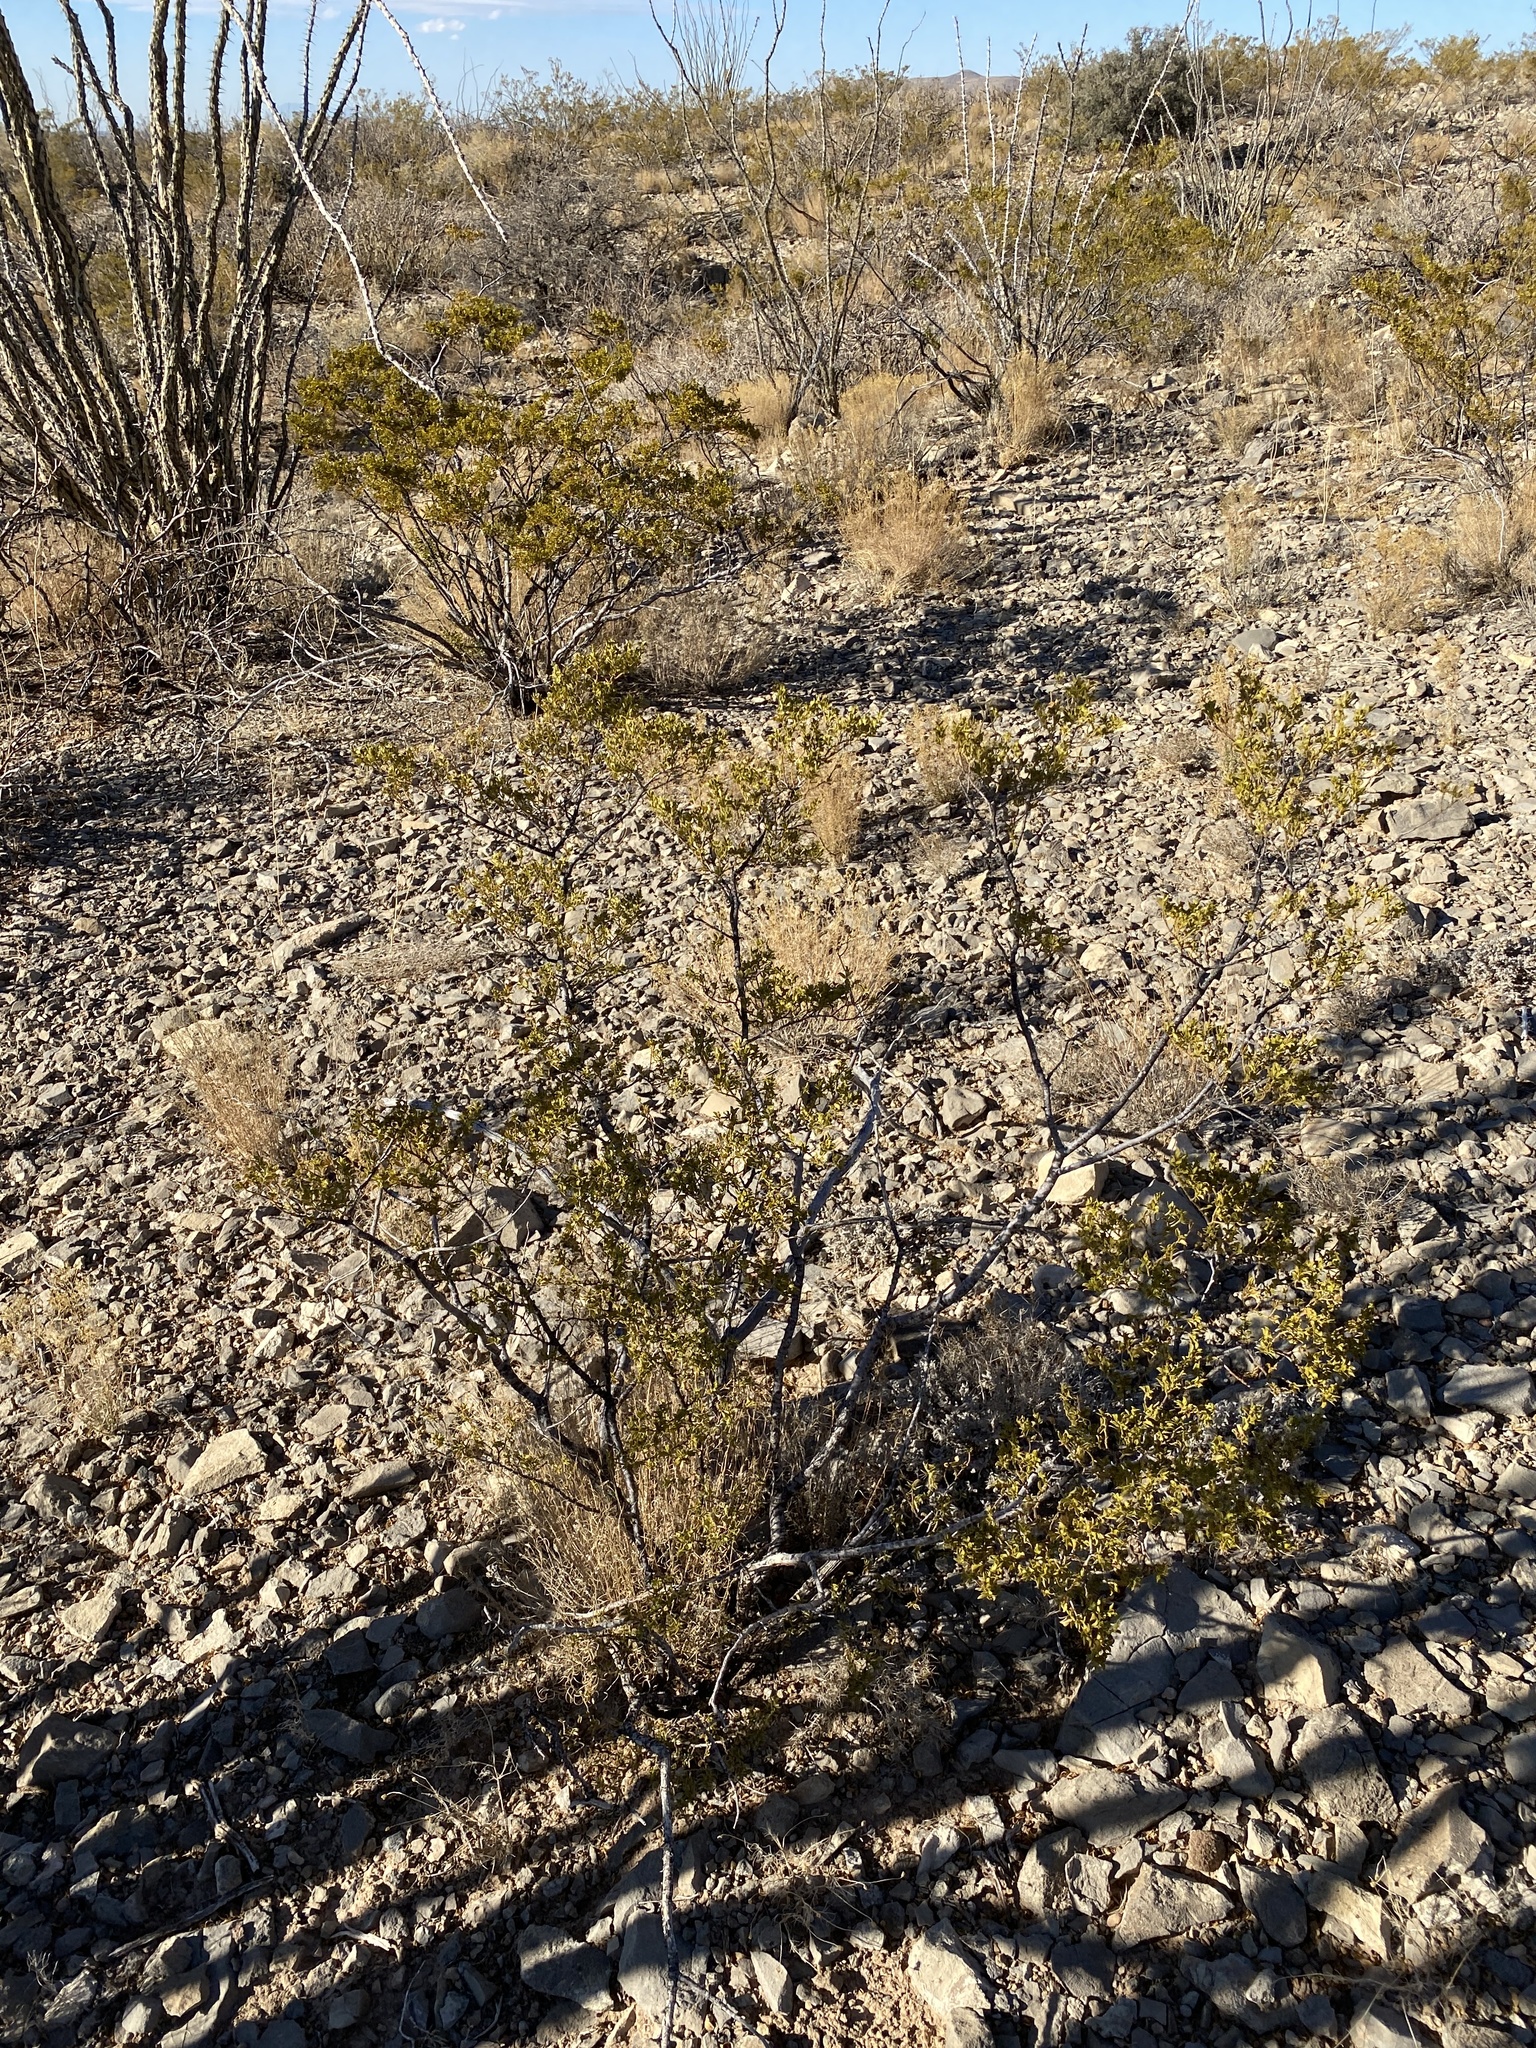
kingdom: Plantae
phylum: Tracheophyta
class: Magnoliopsida
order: Zygophyllales
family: Zygophyllaceae
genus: Larrea
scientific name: Larrea tridentata
